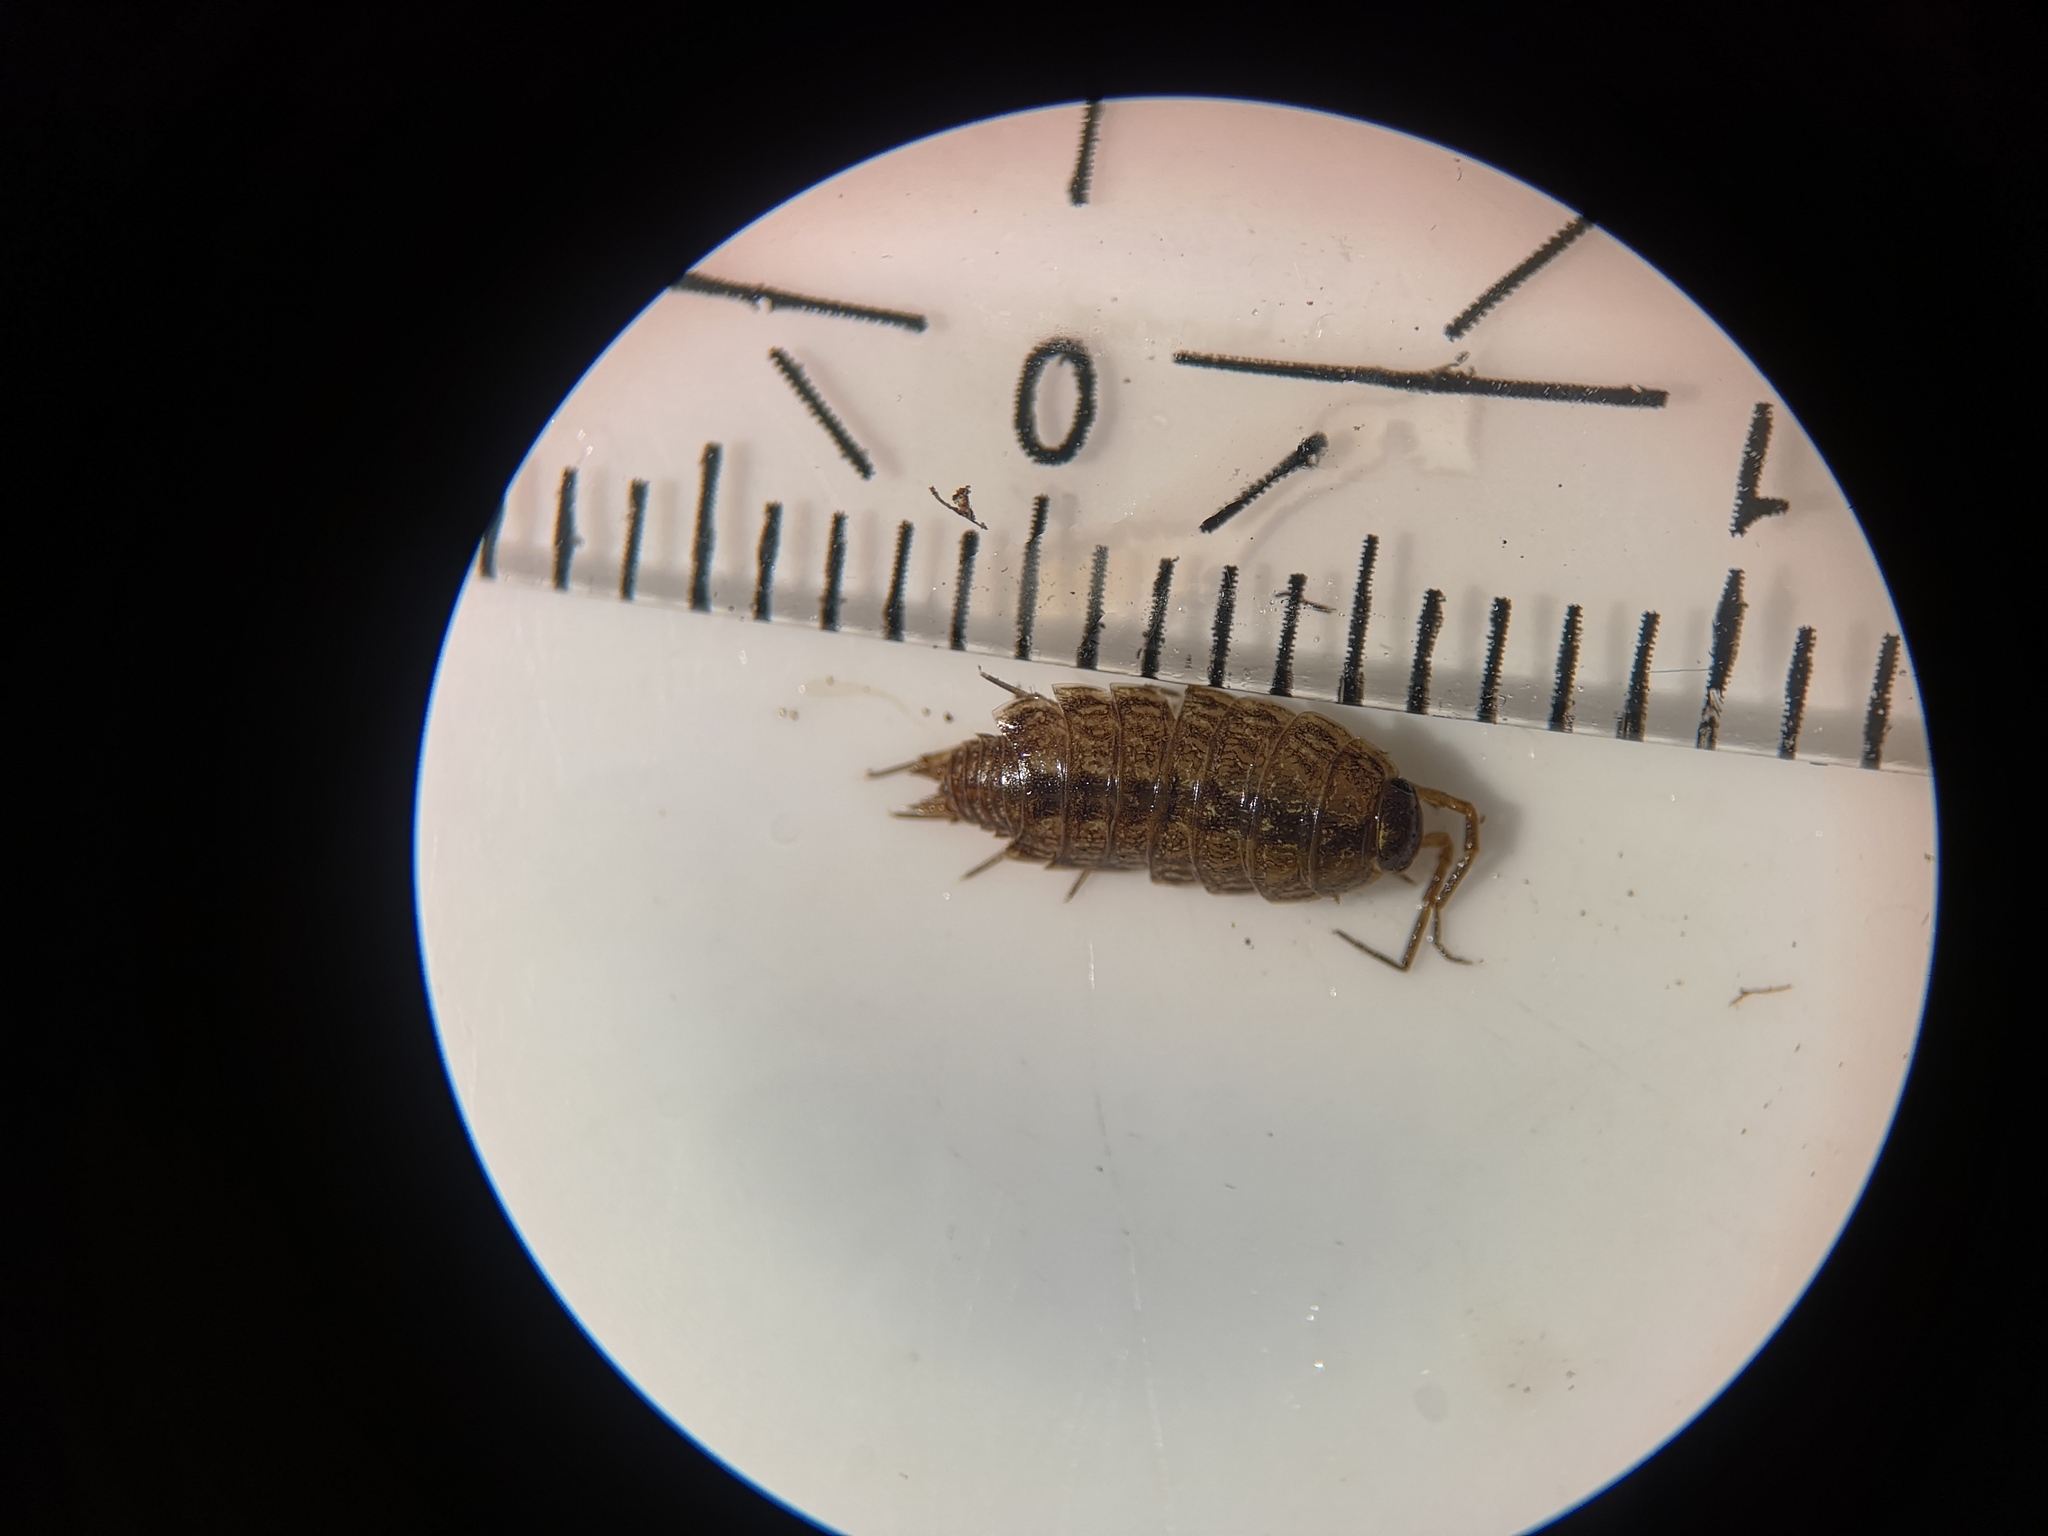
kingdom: Animalia
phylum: Arthropoda
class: Malacostraca
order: Isopoda
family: Philosciidae
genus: Philoscia
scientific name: Philoscia muscorum
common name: Common striped woodlouse
